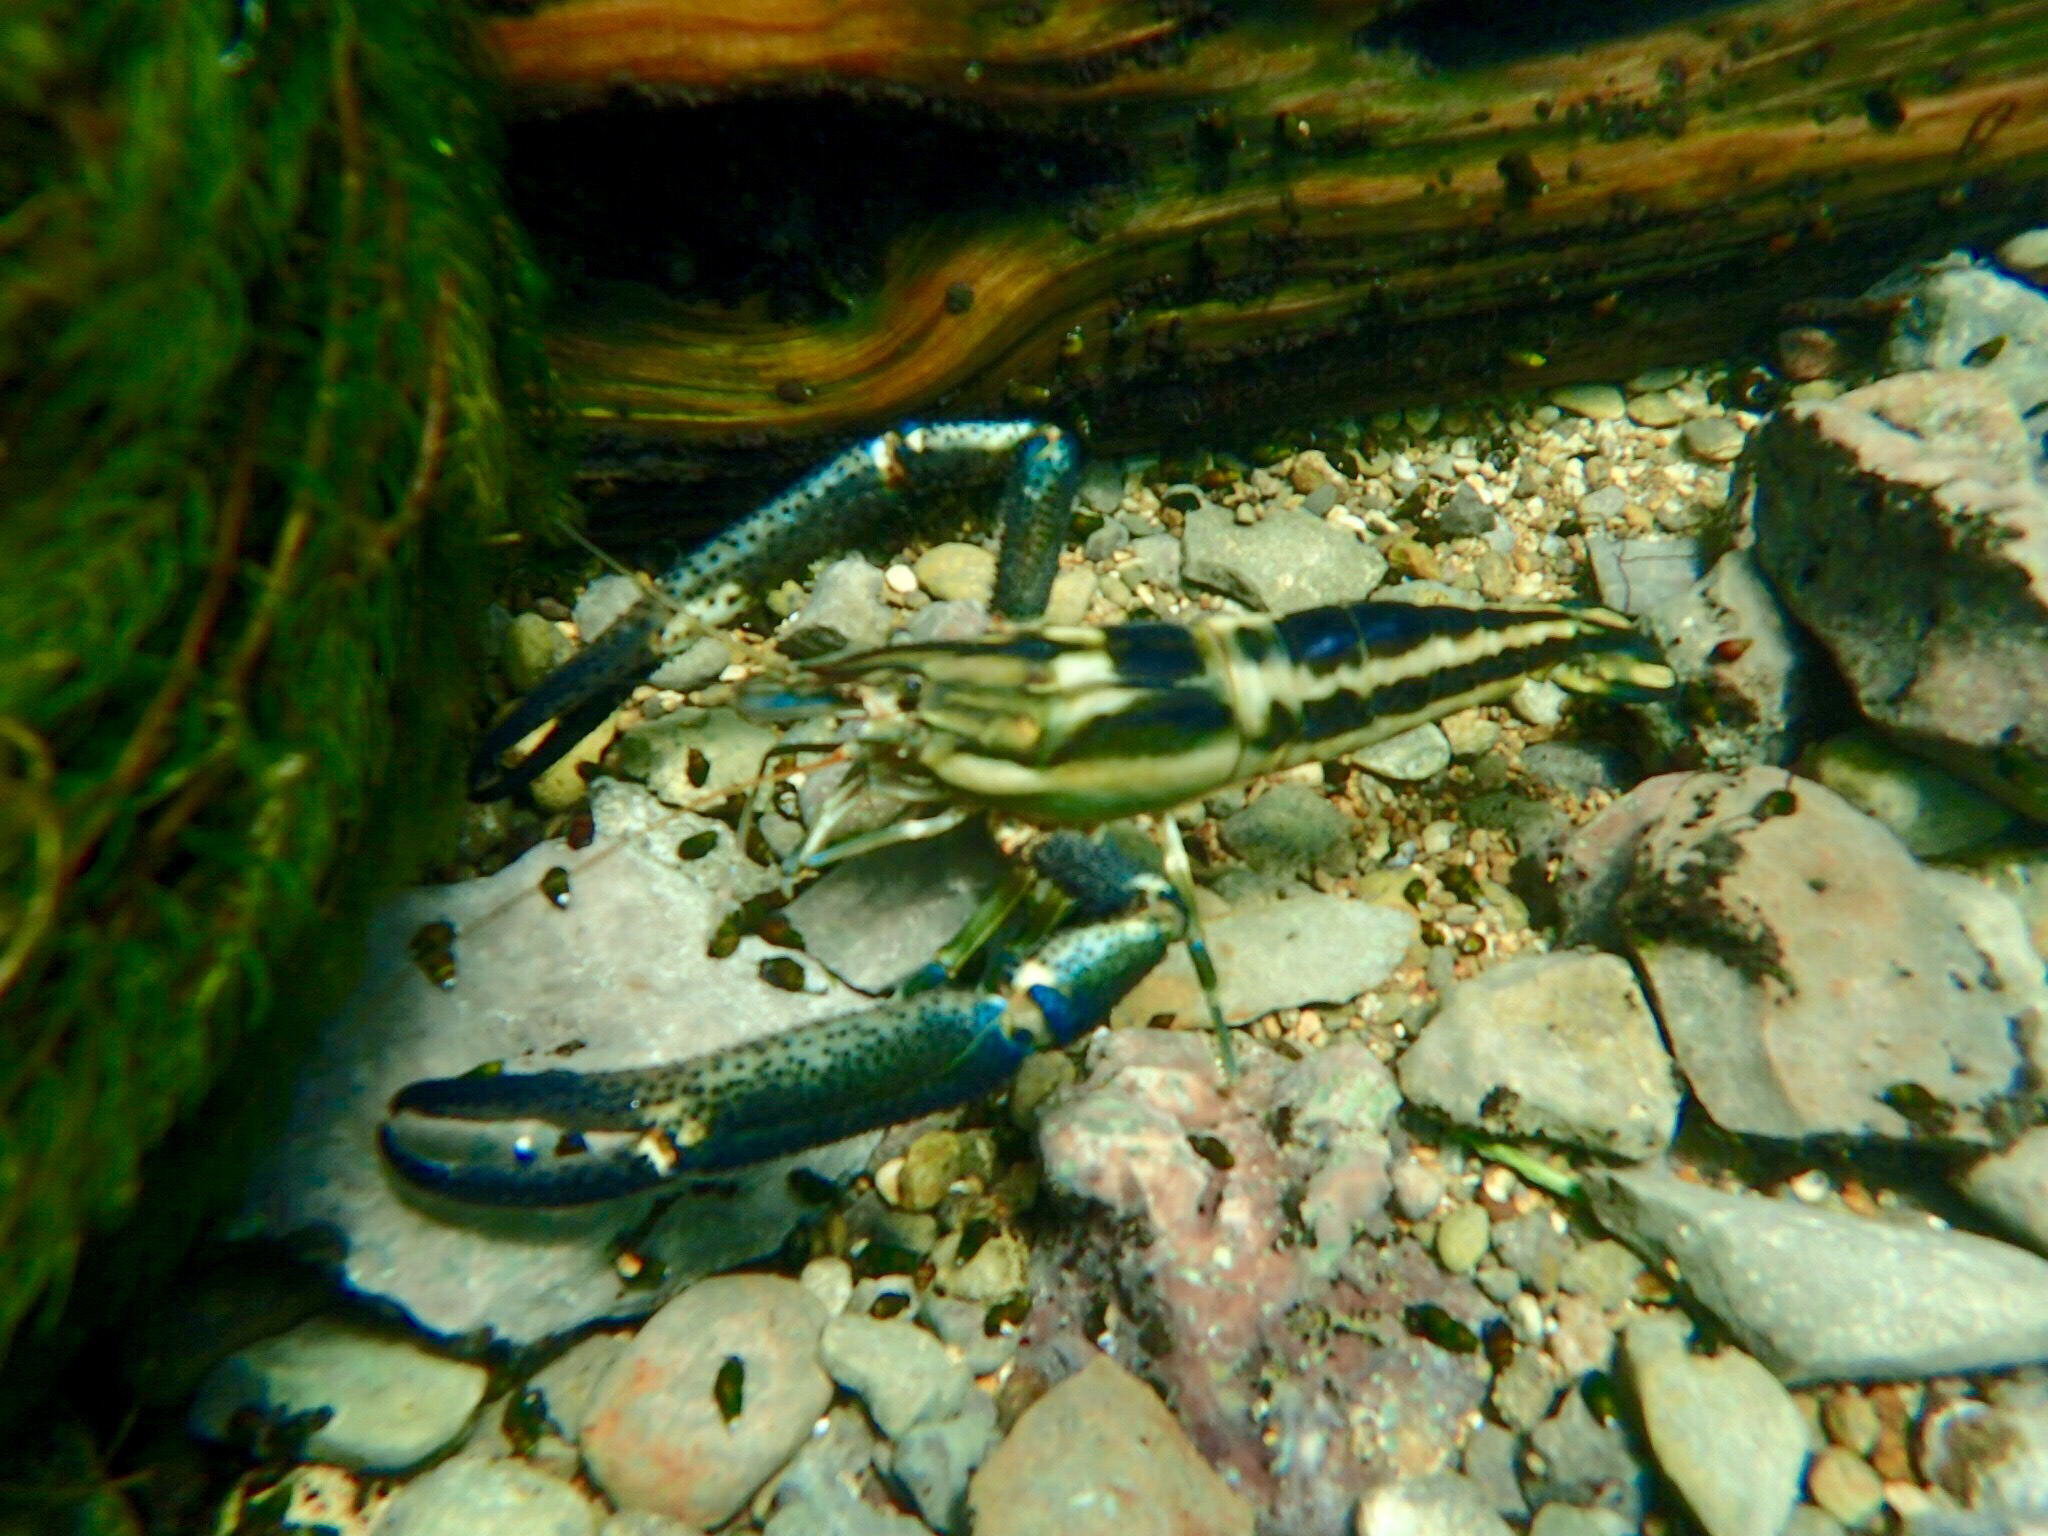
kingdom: Animalia
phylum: Arthropoda
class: Malacostraca
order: Decapoda
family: Palaemonidae
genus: Macrobrachium
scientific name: Macrobrachium carcinus
